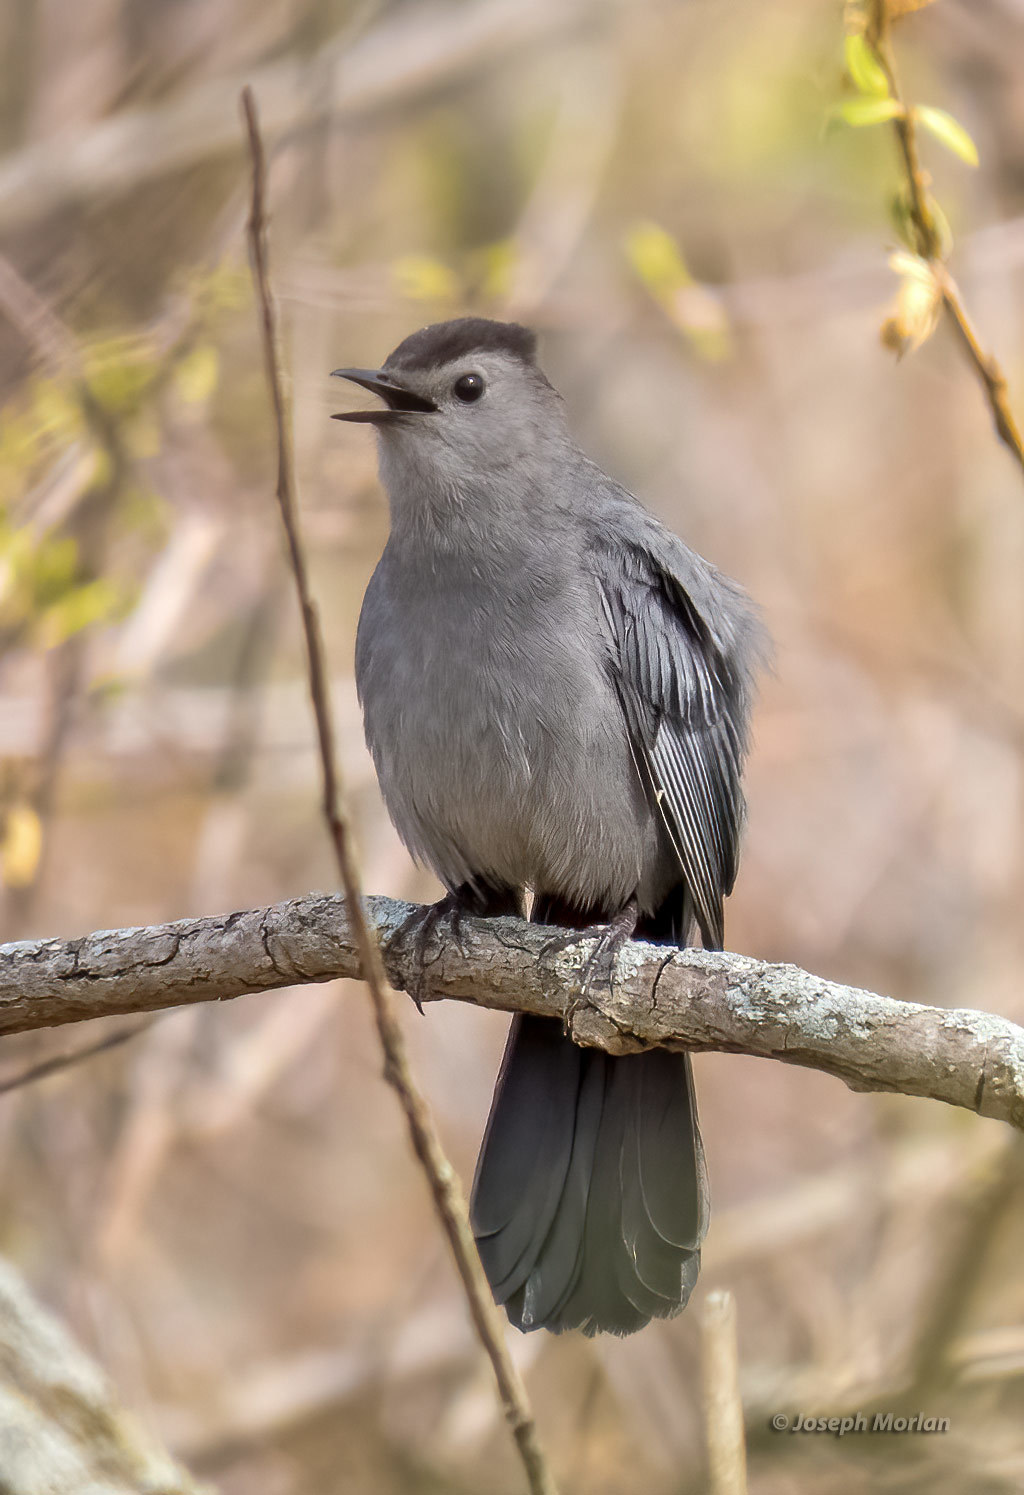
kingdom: Animalia
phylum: Chordata
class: Aves
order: Passeriformes
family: Mimidae
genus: Dumetella
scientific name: Dumetella carolinensis
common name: Gray catbird
